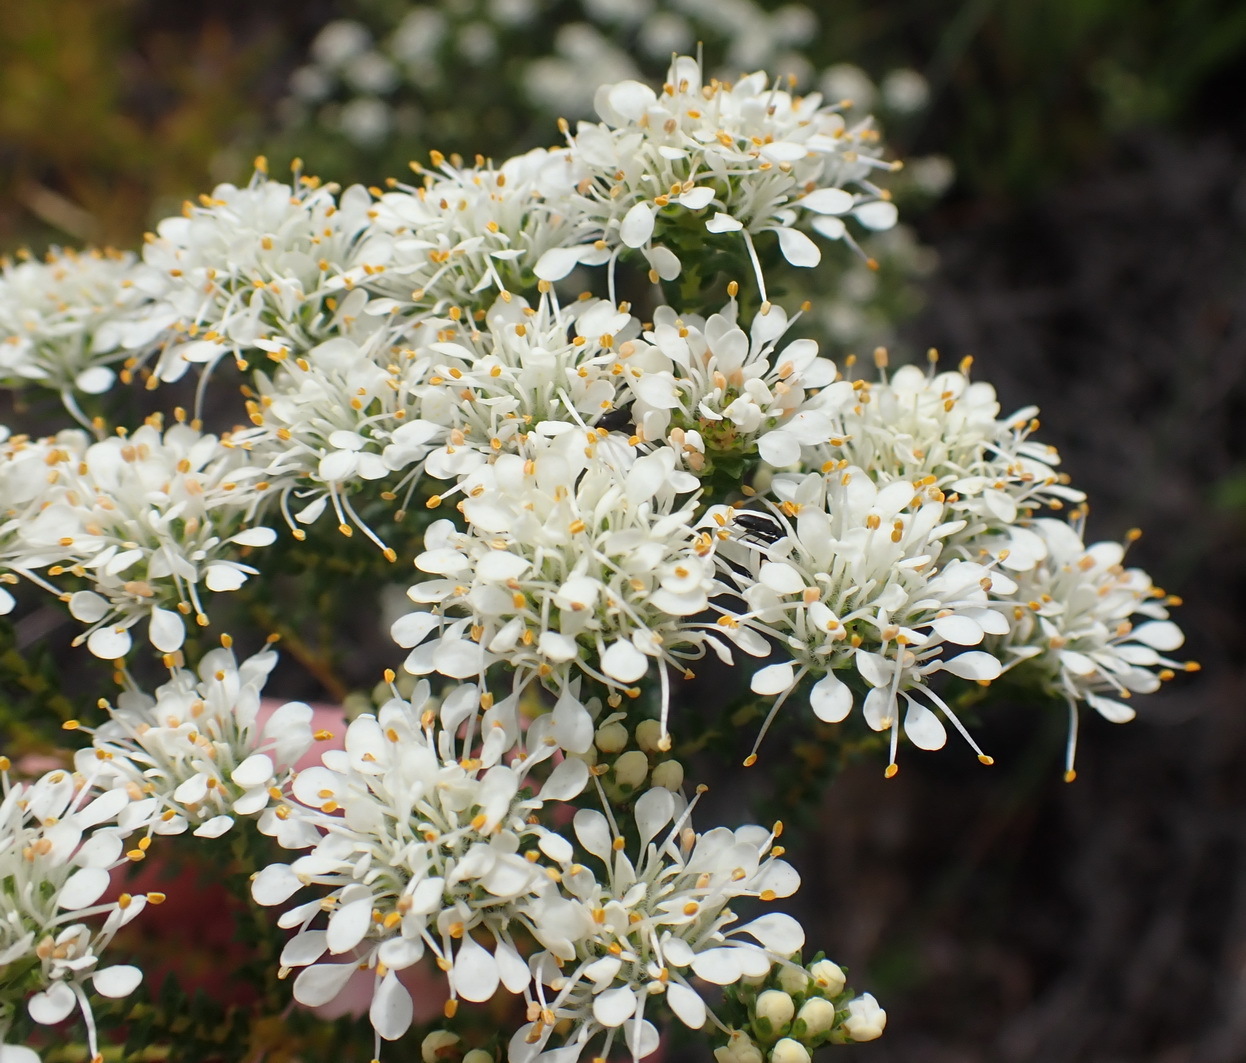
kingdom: Plantae
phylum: Tracheophyta
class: Magnoliopsida
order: Sapindales
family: Rutaceae
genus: Agathosma
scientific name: Agathosma imbricata
